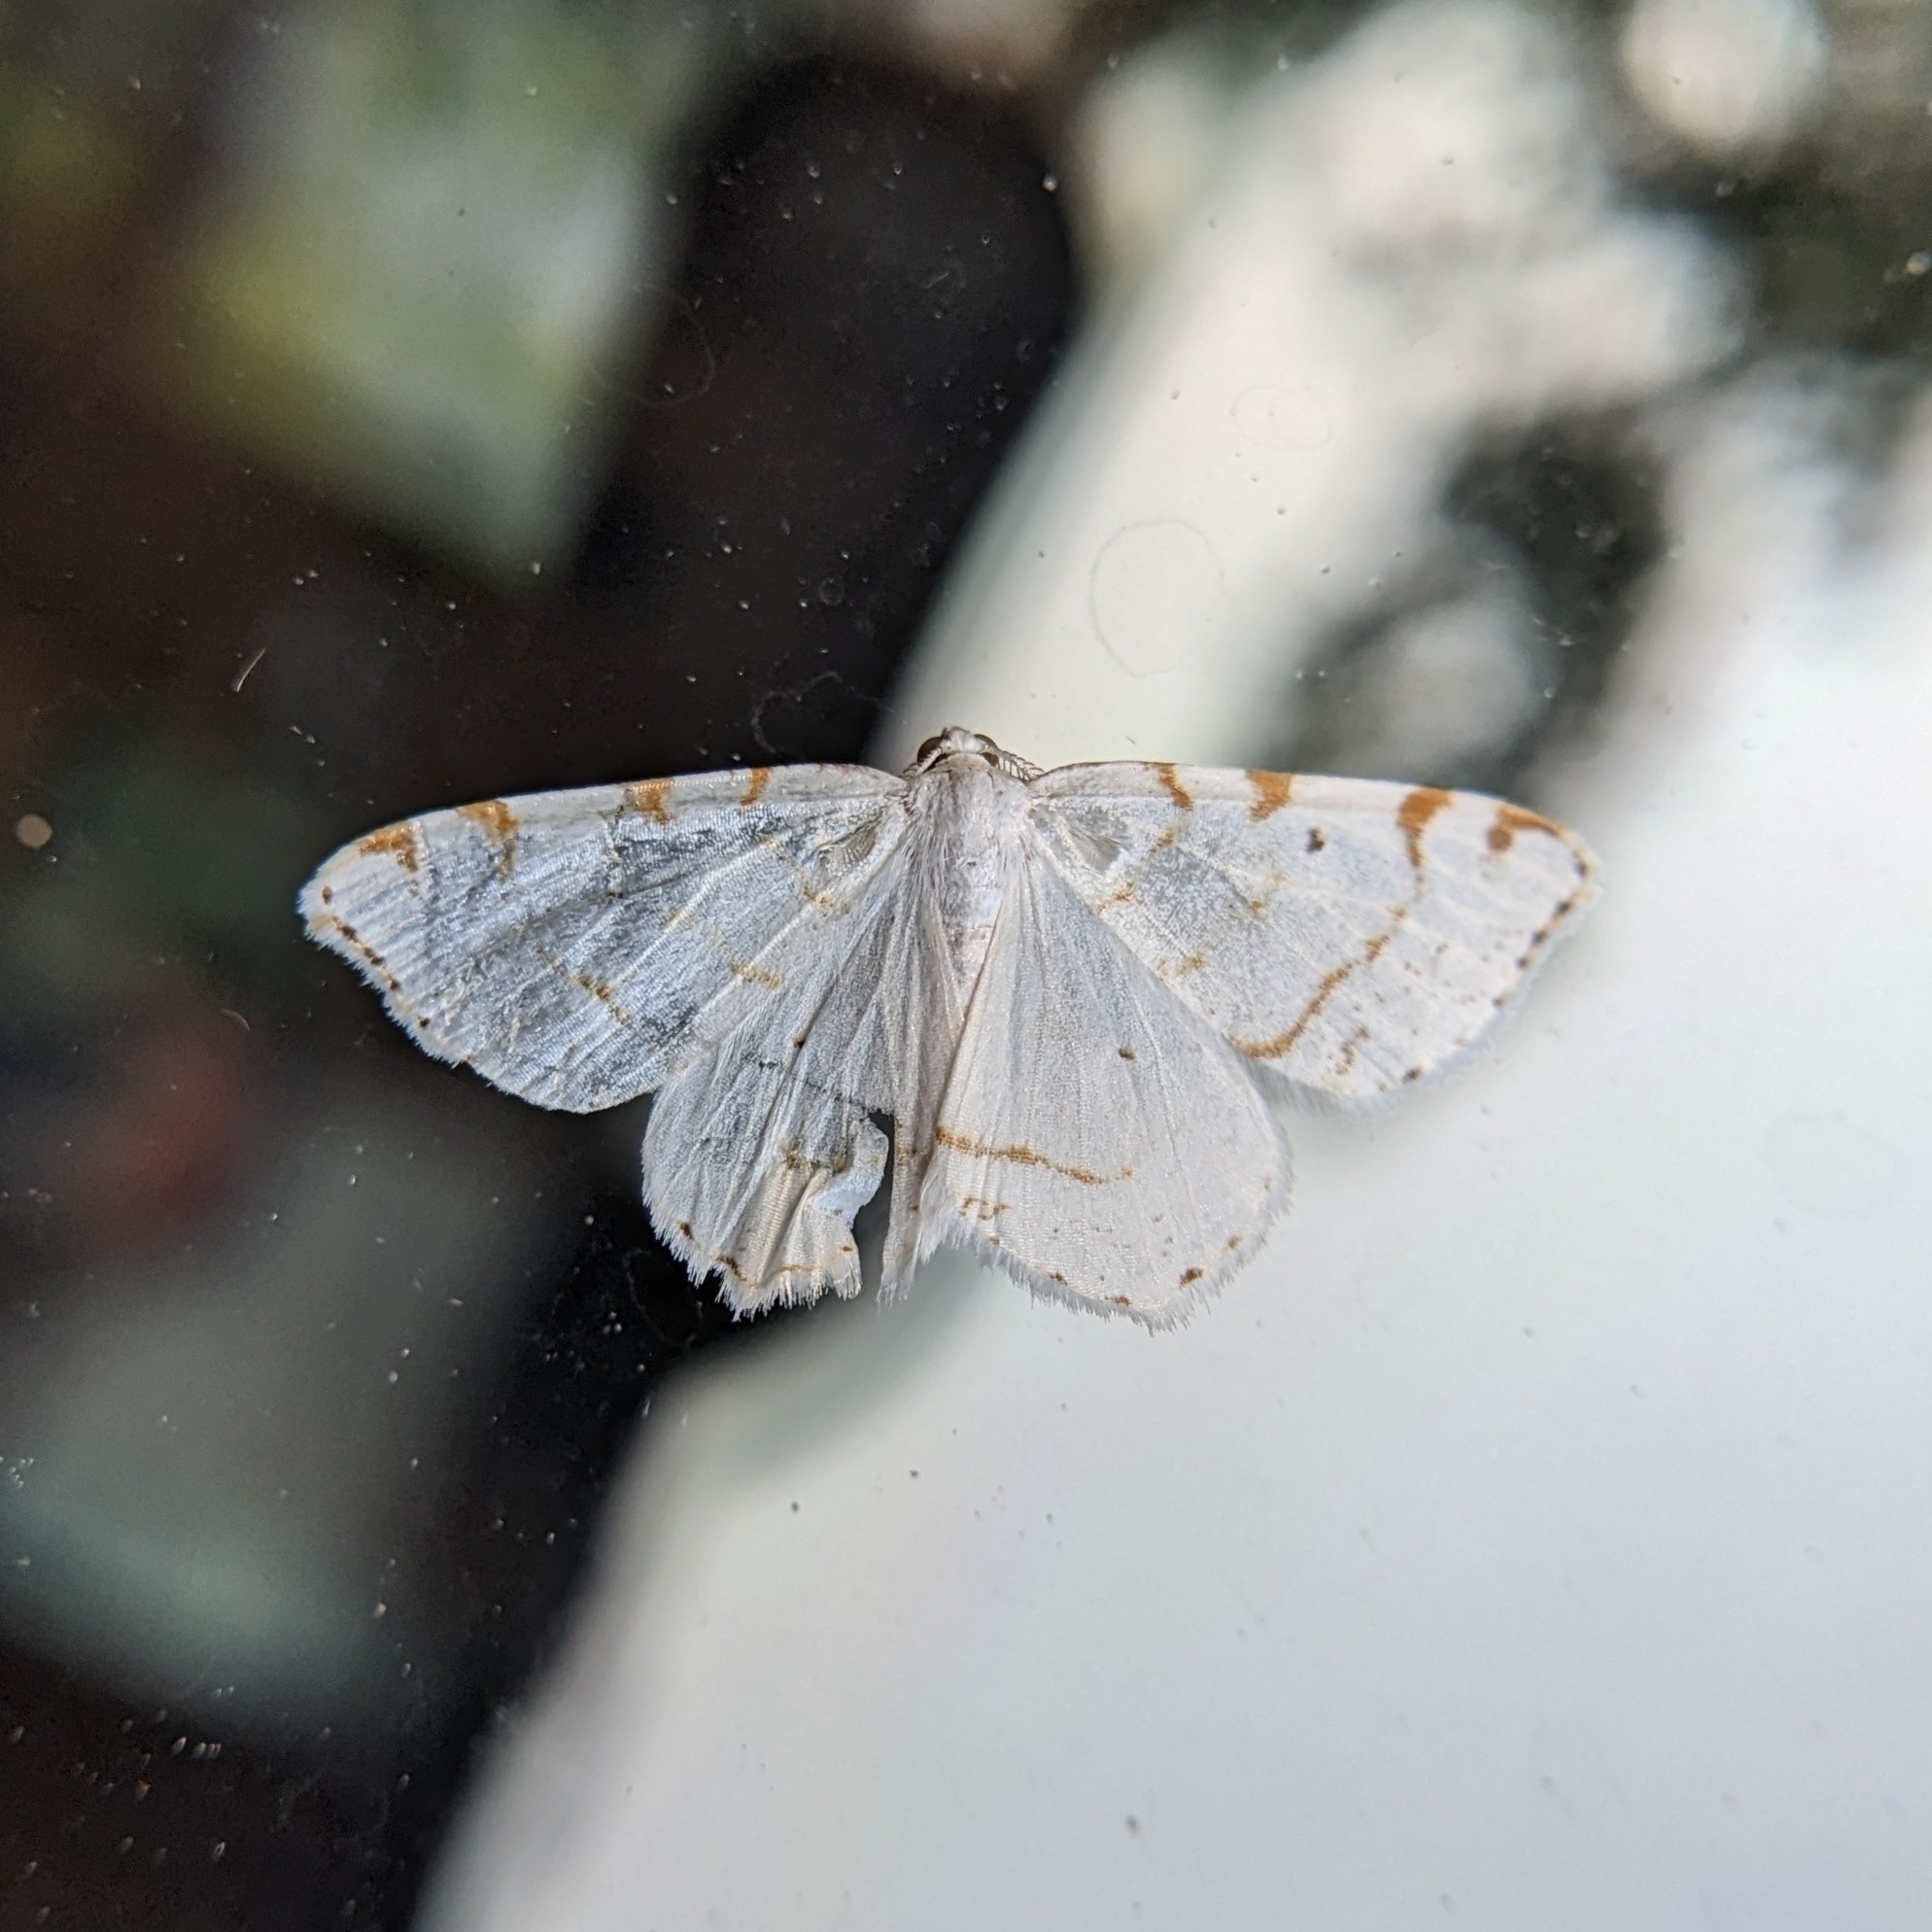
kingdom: Animalia
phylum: Arthropoda
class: Insecta
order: Lepidoptera
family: Geometridae
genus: Macaria
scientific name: Macaria pustularia
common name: Lesser maple spanworm moth
